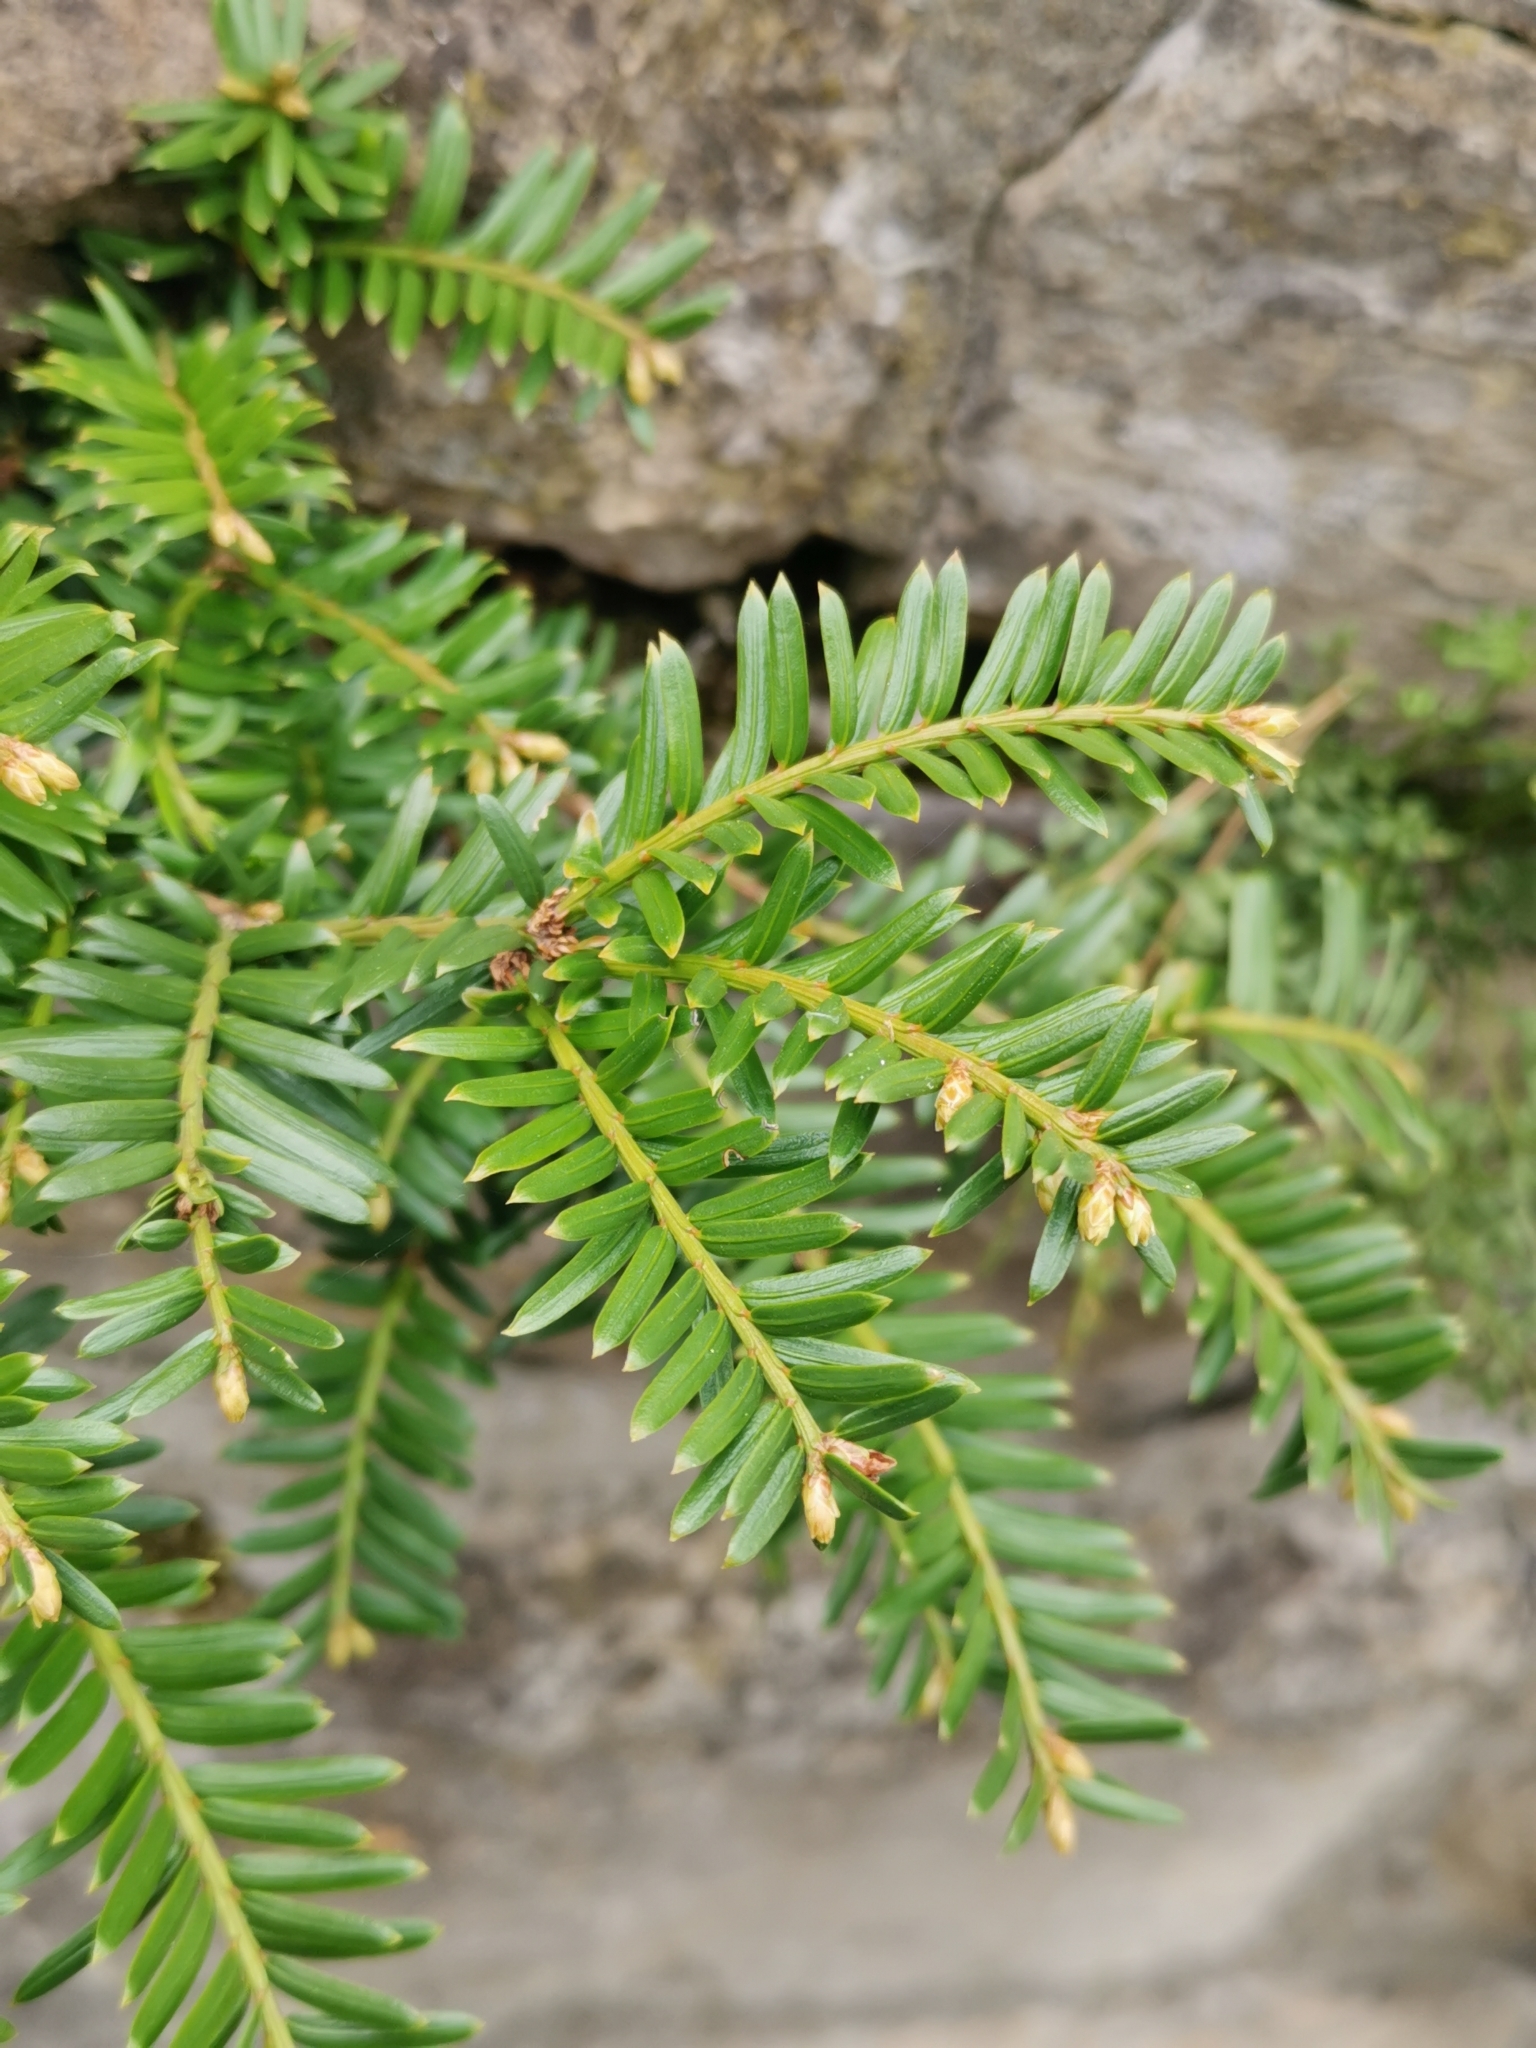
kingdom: Plantae
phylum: Tracheophyta
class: Pinopsida
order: Pinales
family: Taxaceae
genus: Taxus
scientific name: Taxus baccata
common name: Yew
